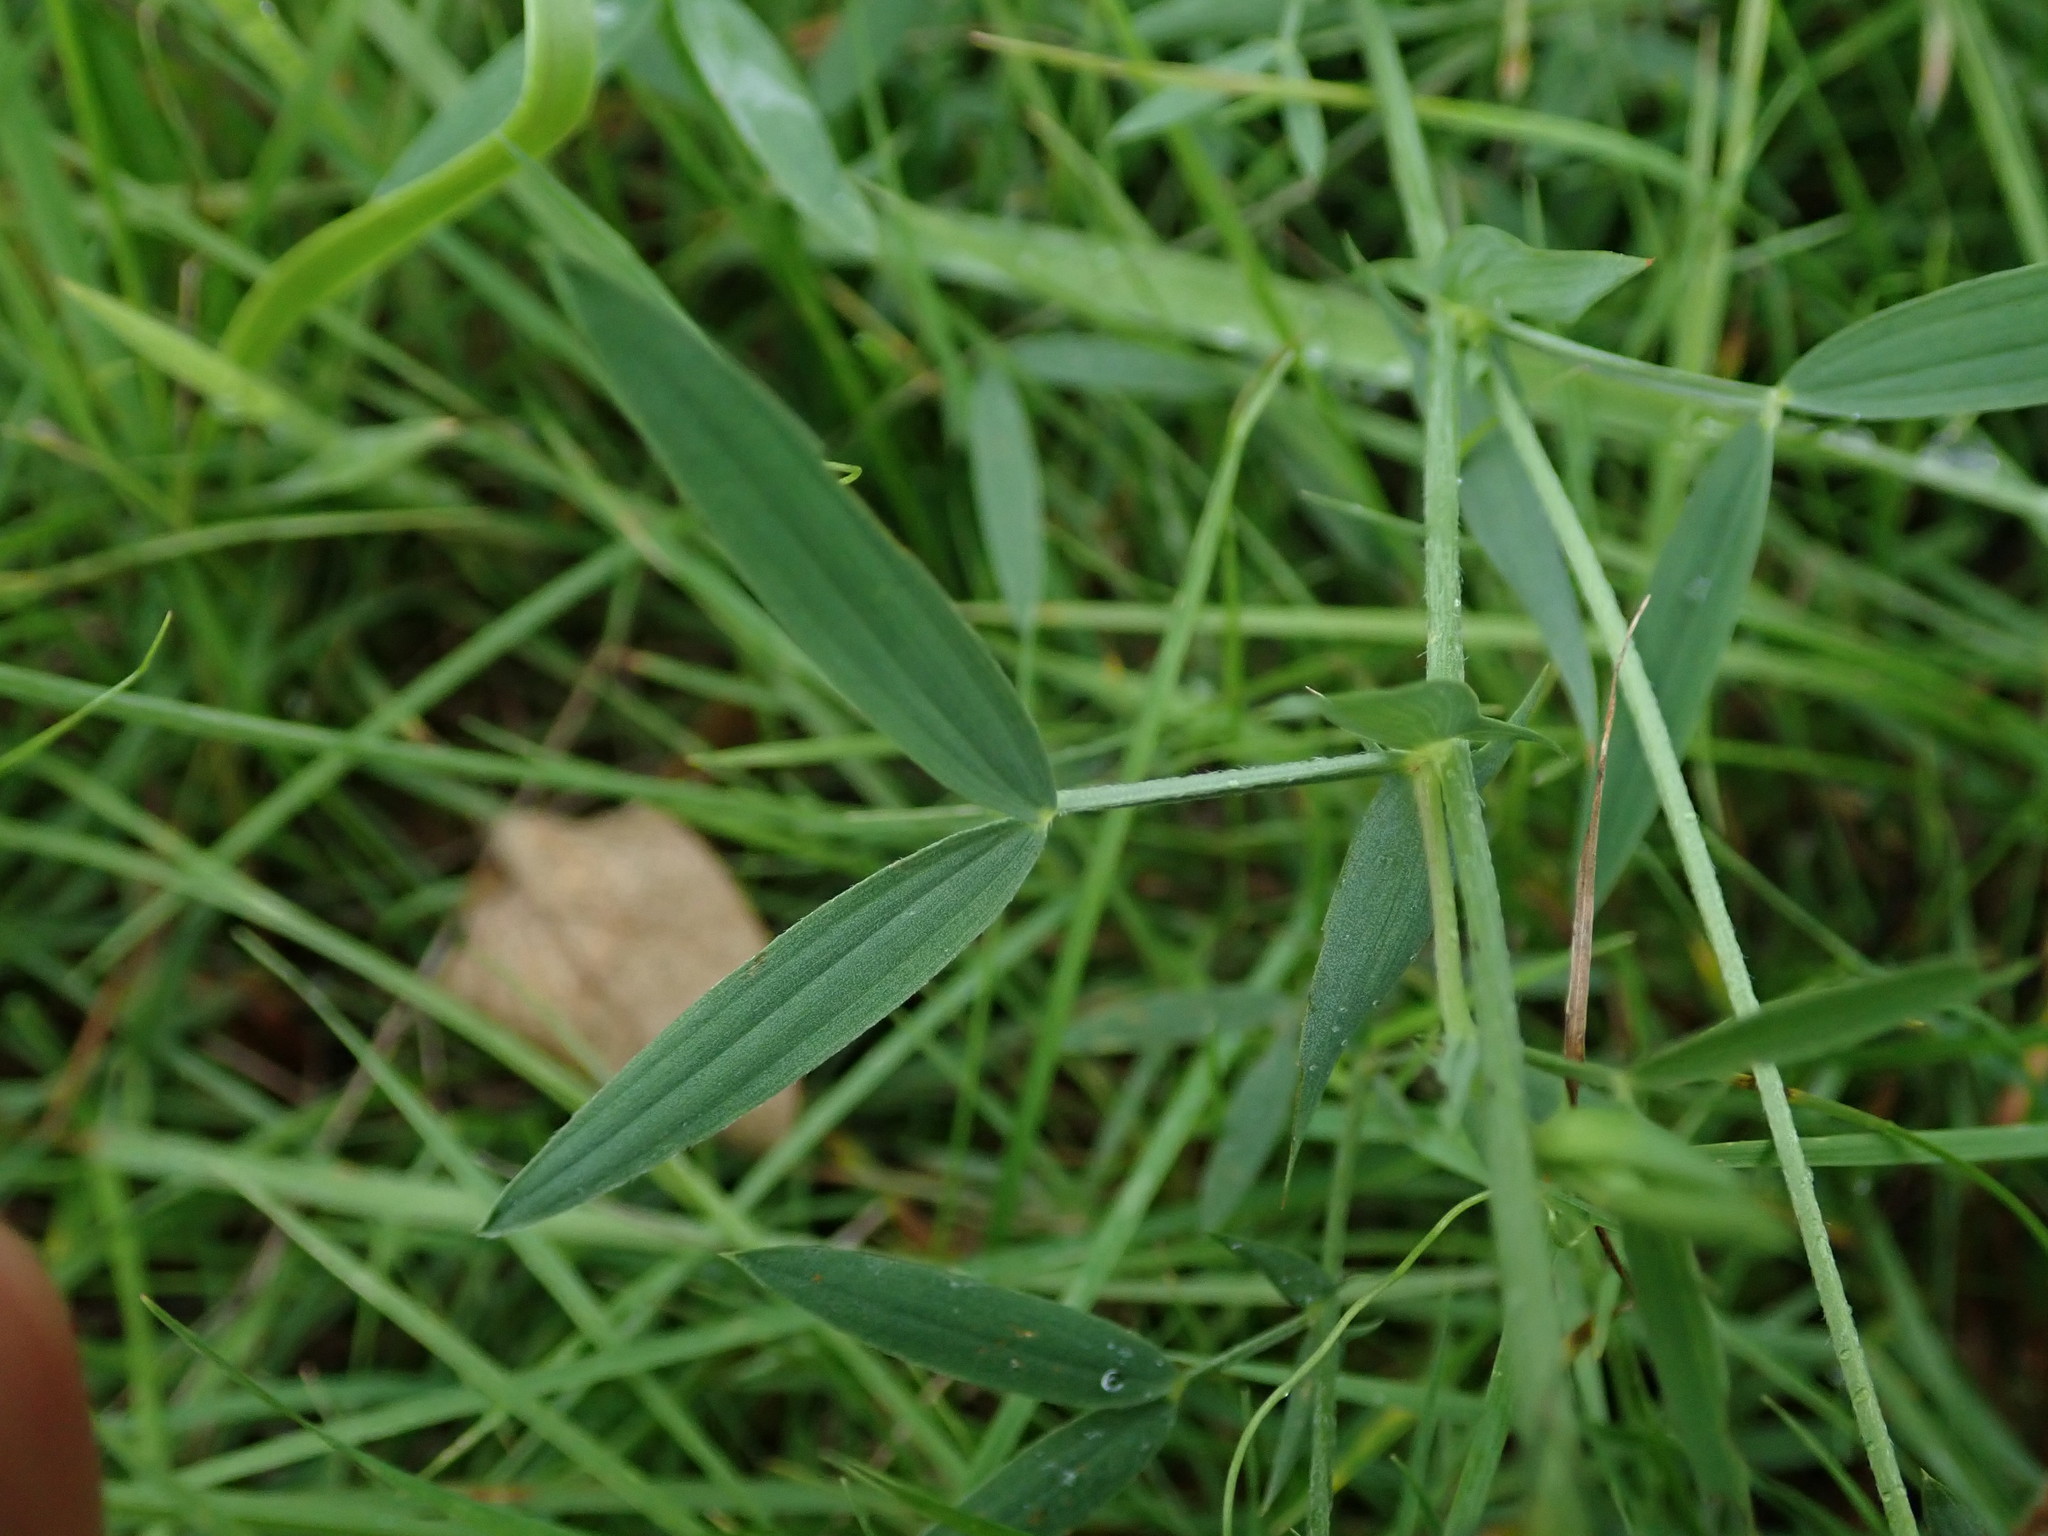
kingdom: Plantae
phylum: Tracheophyta
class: Magnoliopsida
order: Fabales
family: Fabaceae
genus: Lathyrus
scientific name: Lathyrus pratensis
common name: Meadow vetchling
